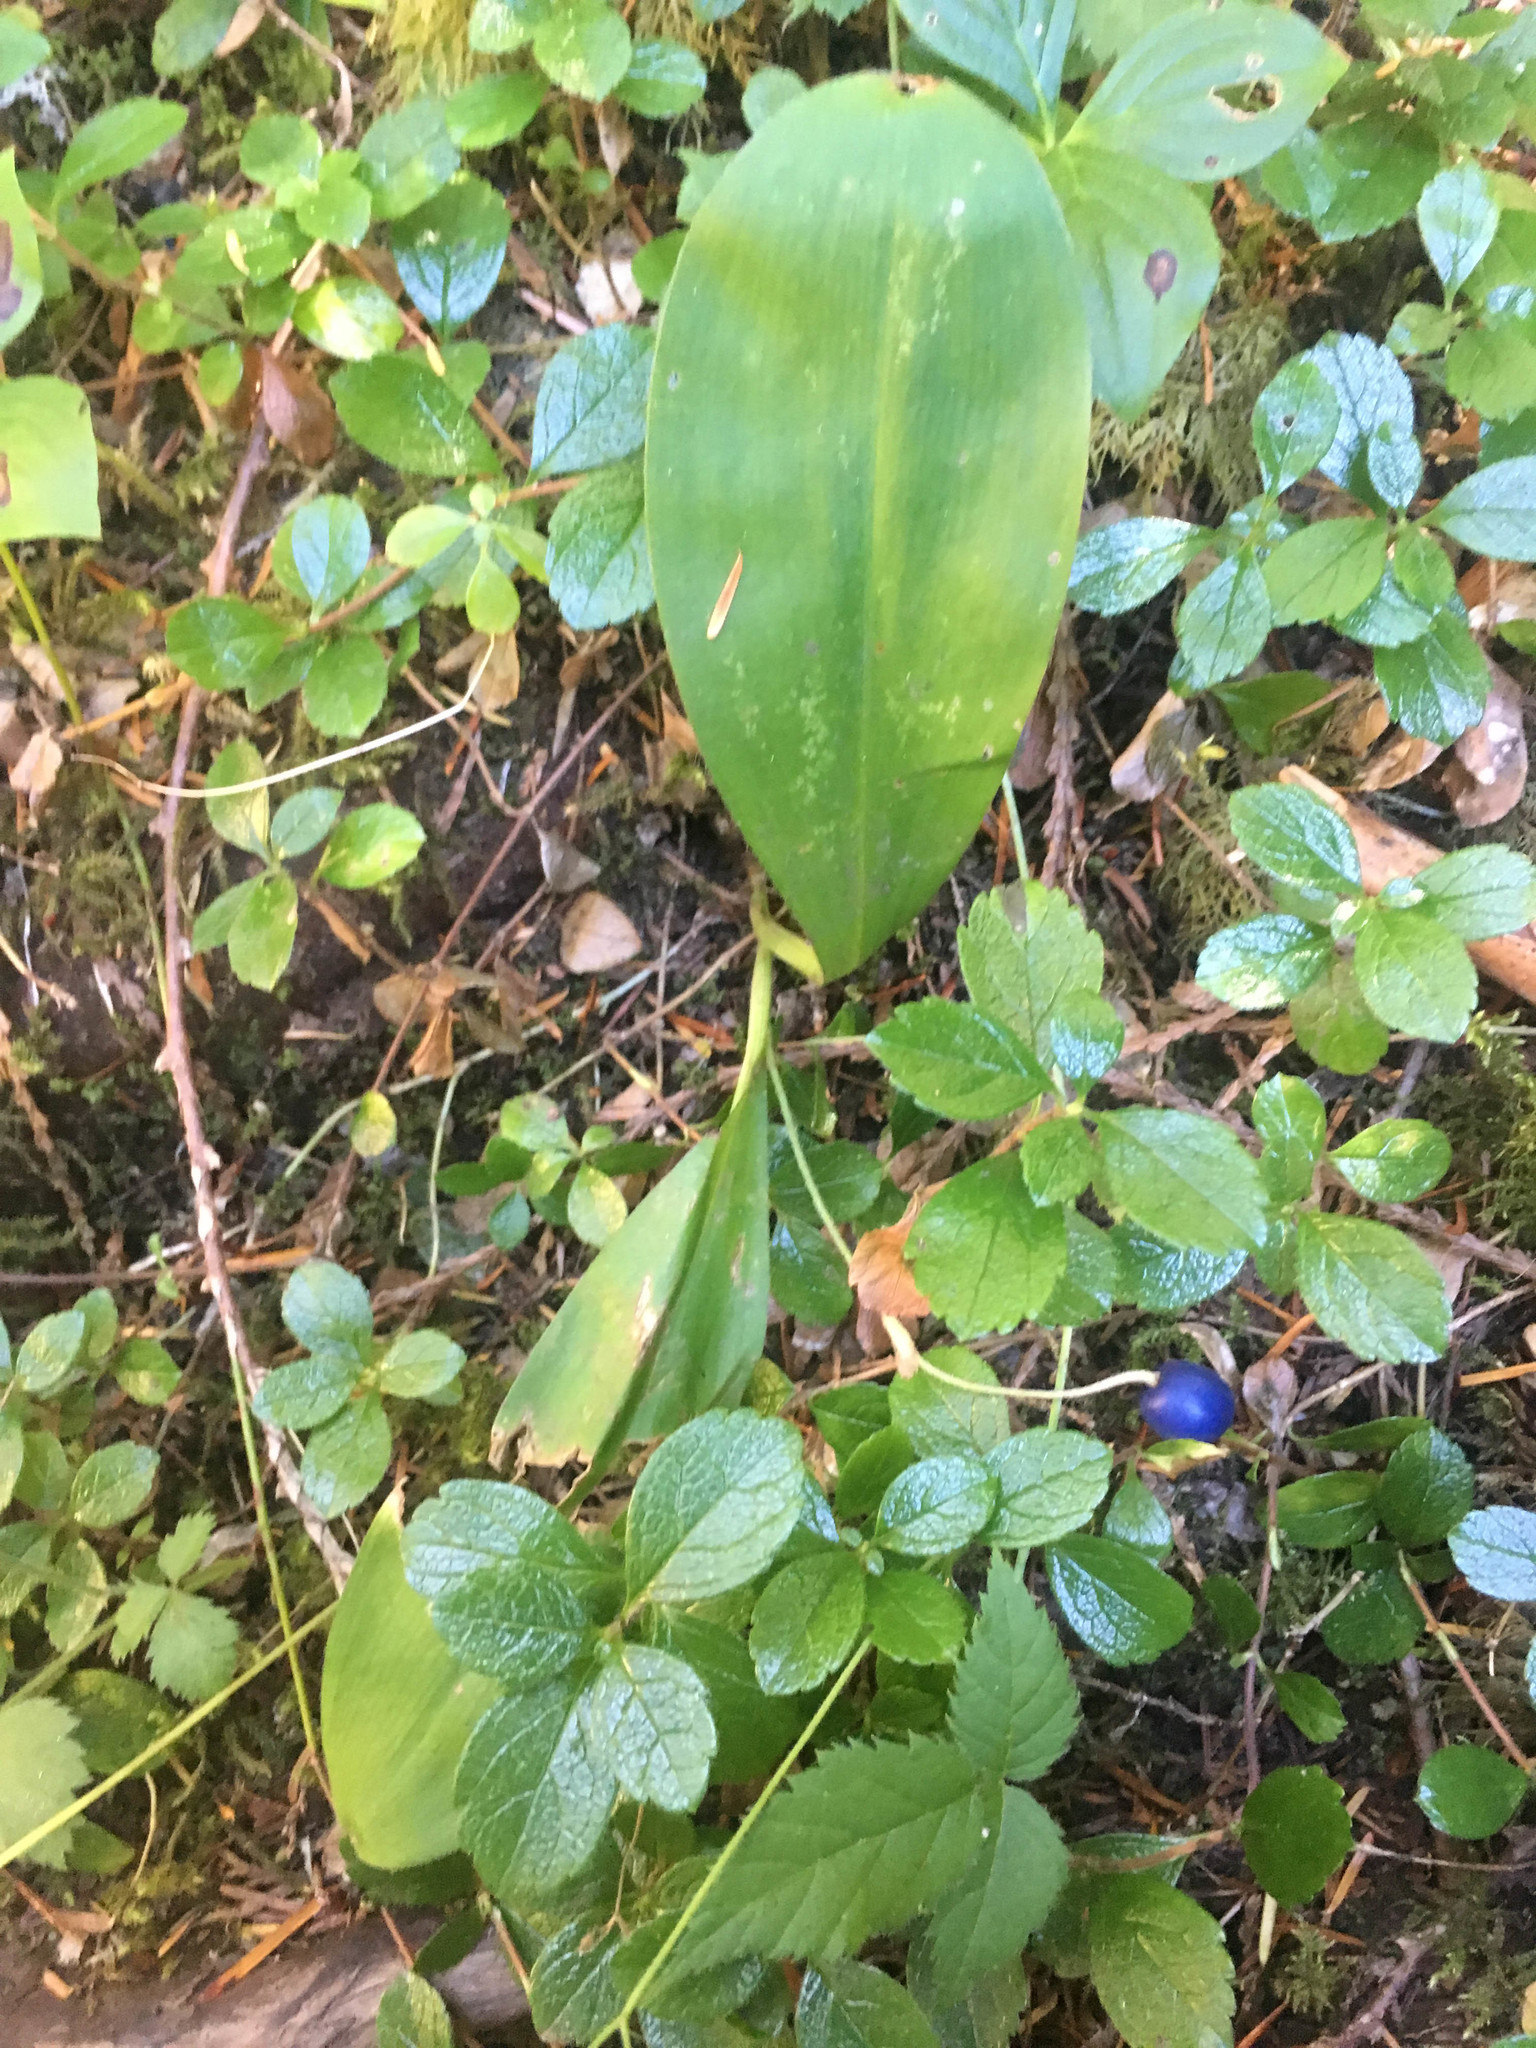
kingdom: Plantae
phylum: Tracheophyta
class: Liliopsida
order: Liliales
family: Liliaceae
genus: Clintonia
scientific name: Clintonia uniflora
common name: Queen's cup
